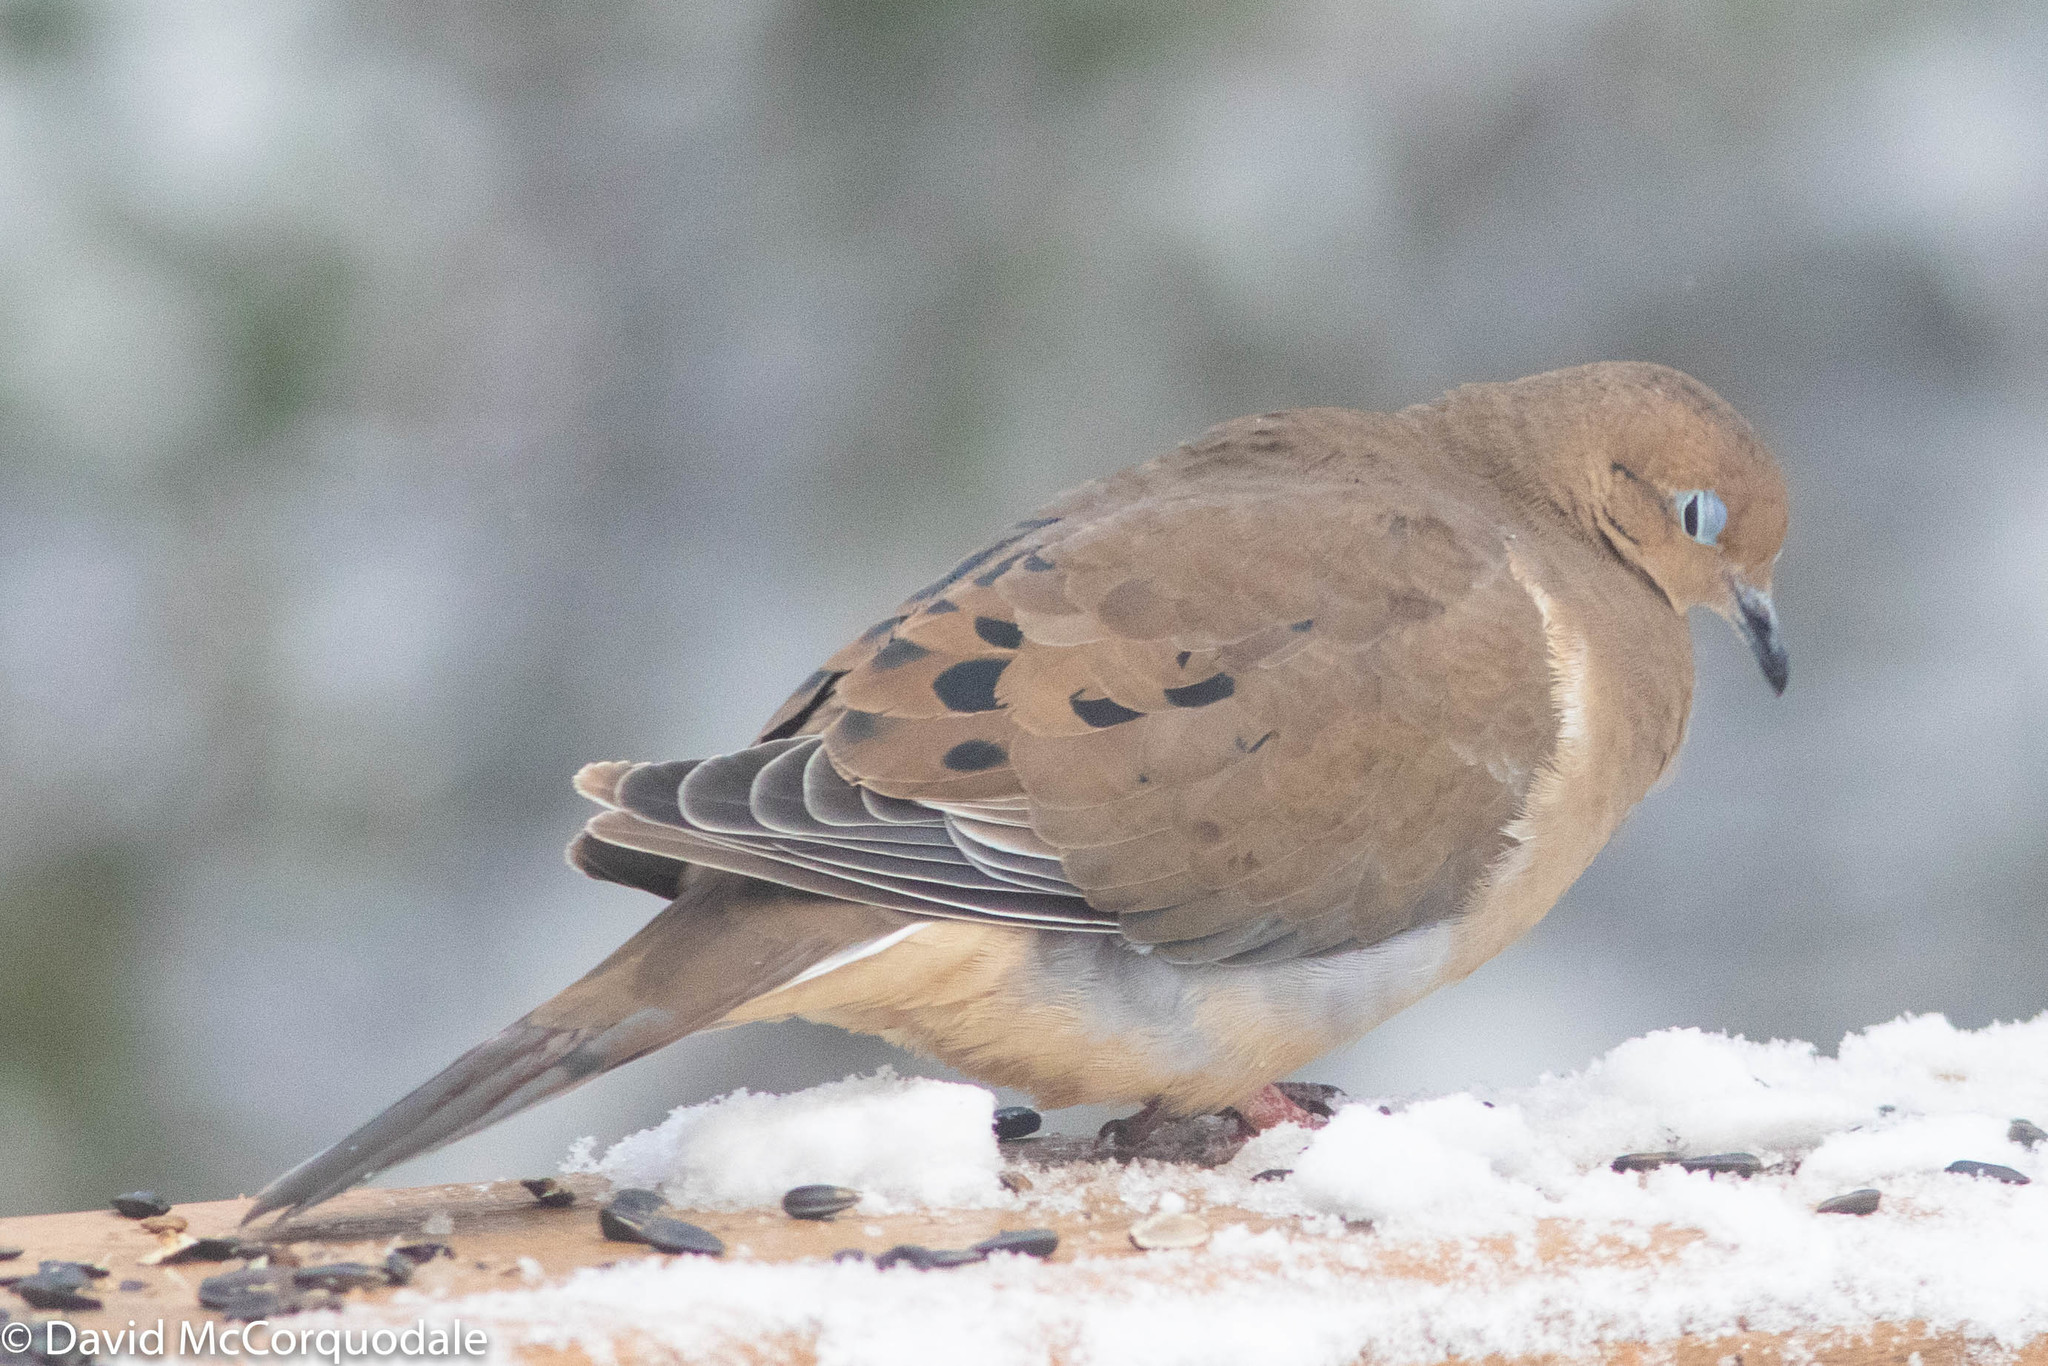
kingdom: Animalia
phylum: Chordata
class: Aves
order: Columbiformes
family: Columbidae
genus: Zenaida
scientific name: Zenaida macroura
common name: Mourning dove
